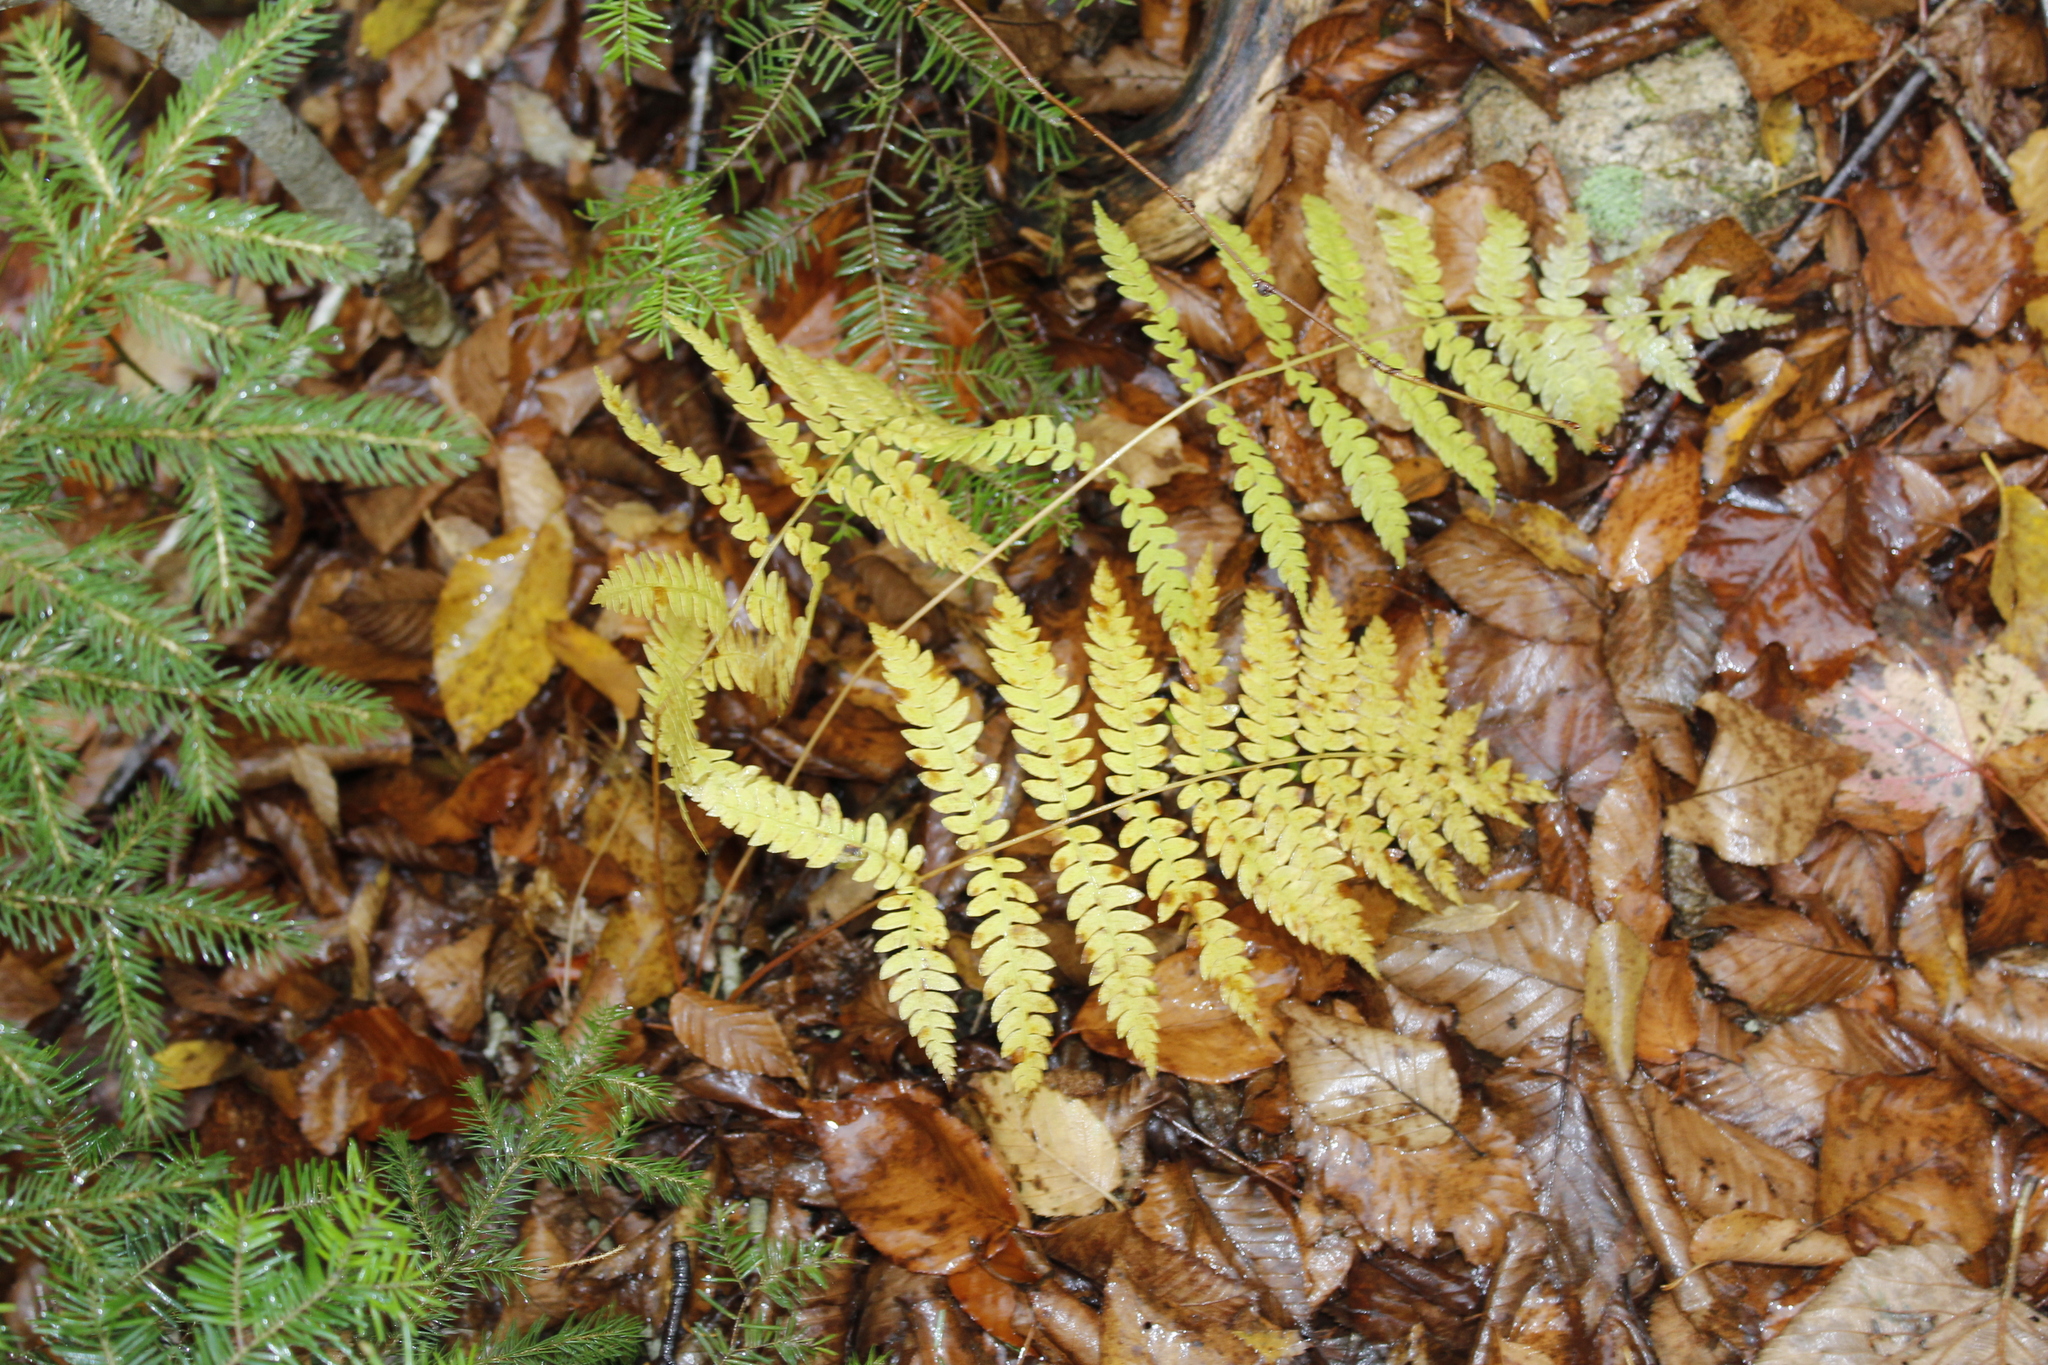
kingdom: Plantae
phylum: Tracheophyta
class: Polypodiopsida
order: Osmundales
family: Osmundaceae
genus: Claytosmunda
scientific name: Claytosmunda claytoniana
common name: Clayton's fern
